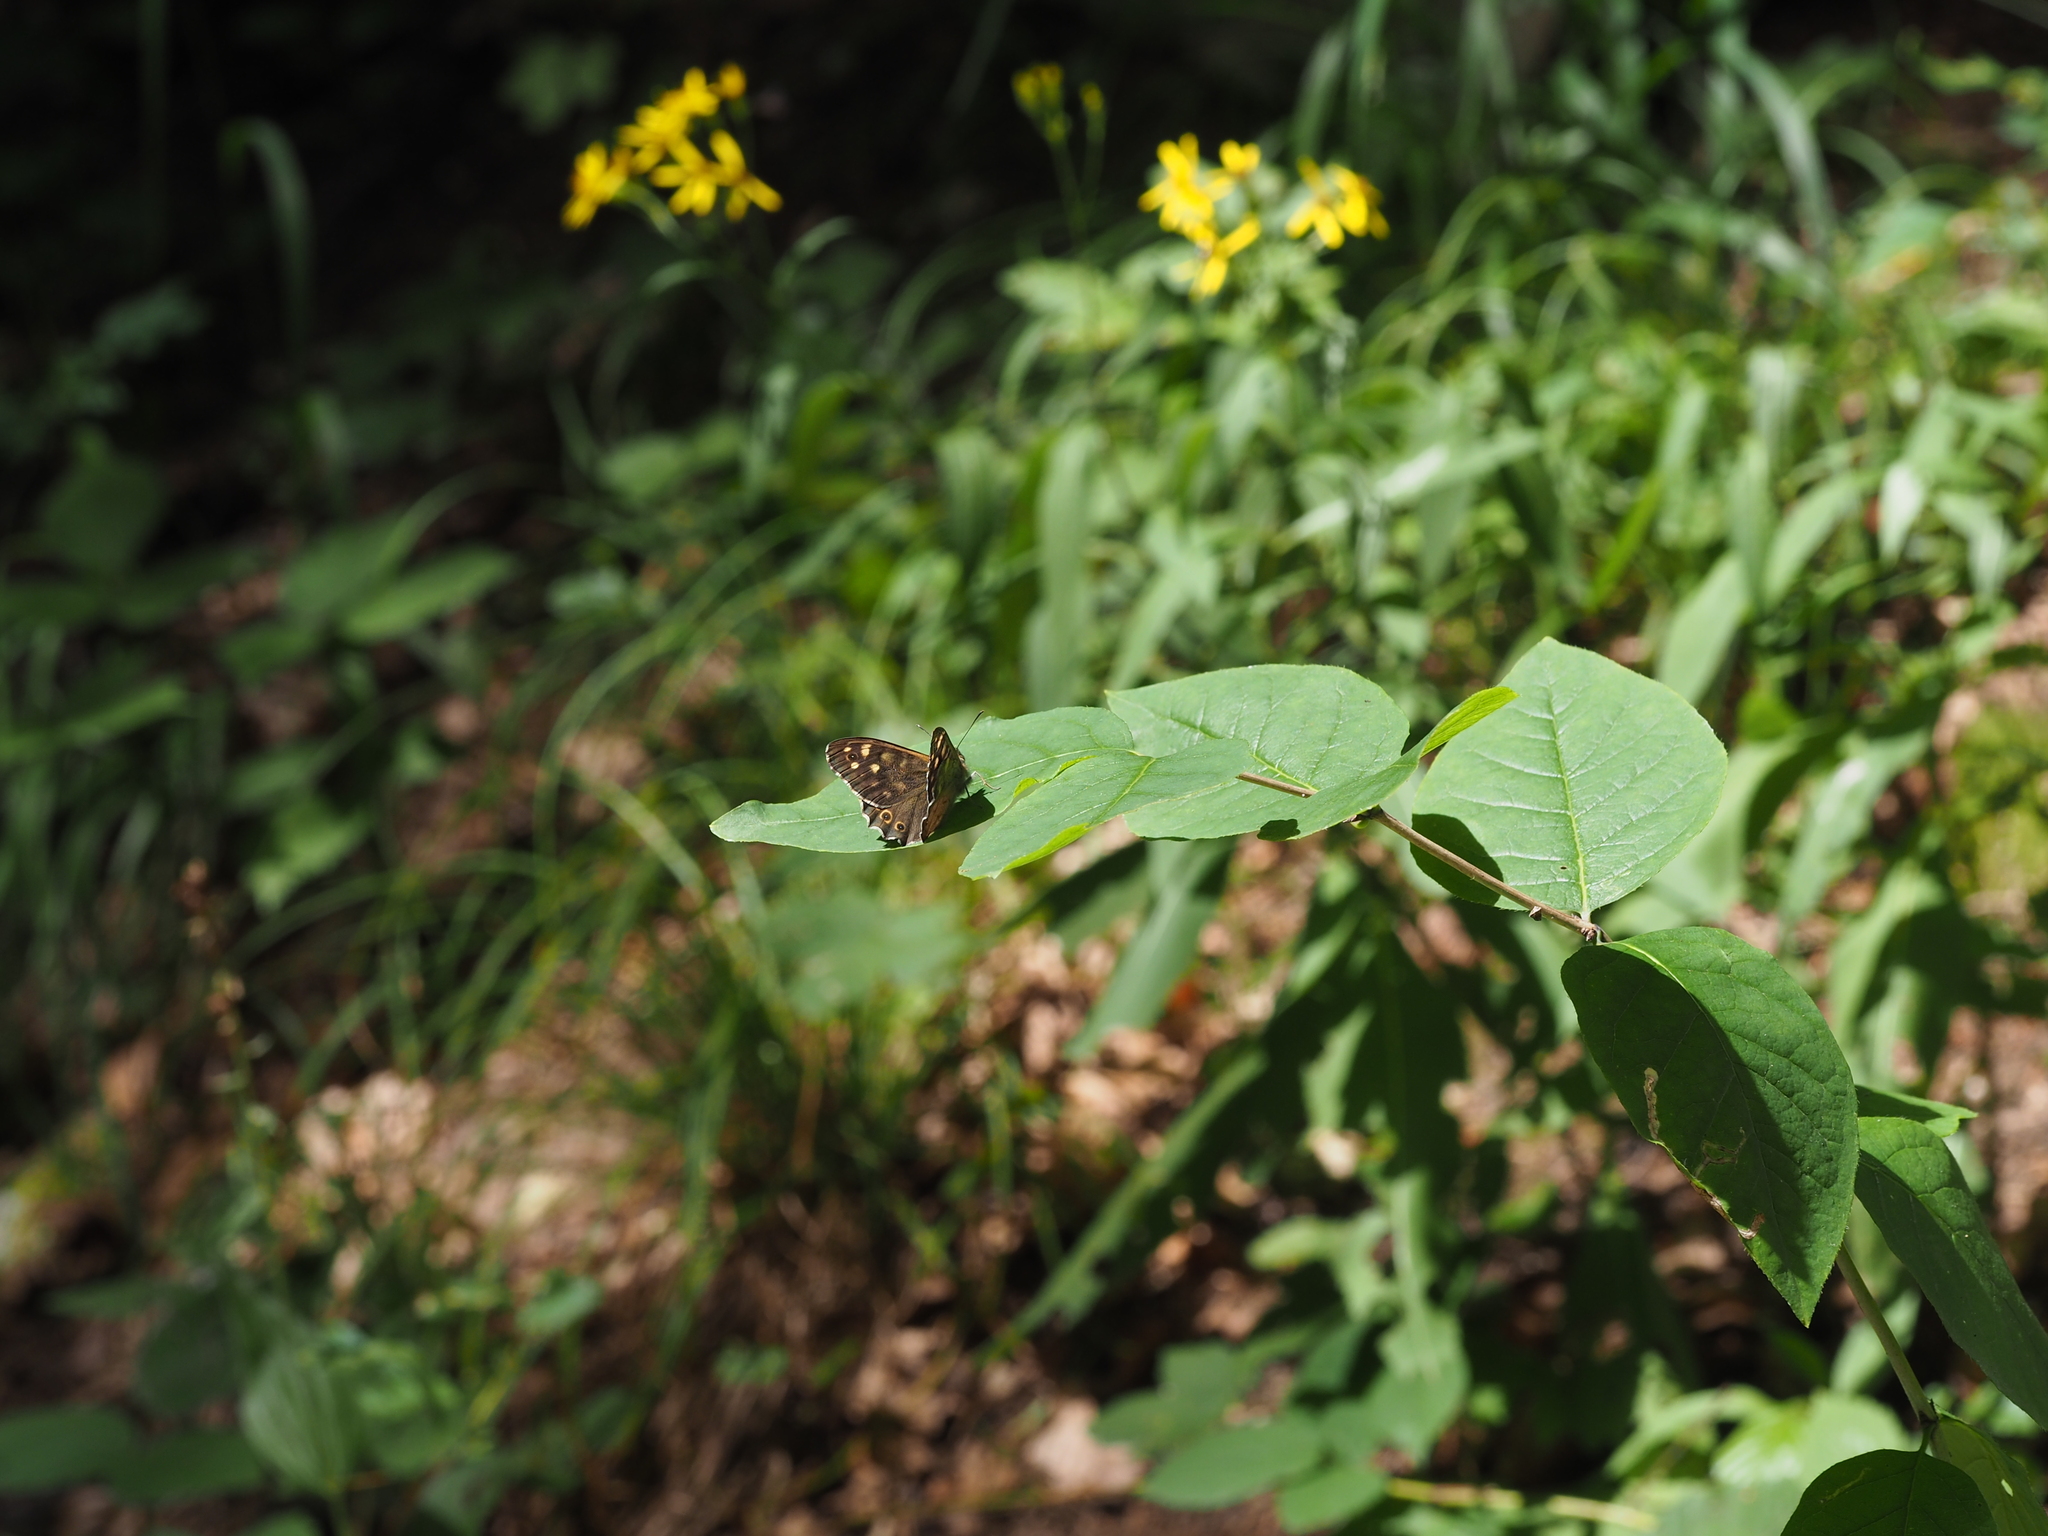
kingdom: Animalia
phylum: Arthropoda
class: Insecta
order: Lepidoptera
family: Nymphalidae
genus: Pararge
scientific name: Pararge aegeria
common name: Speckled wood
